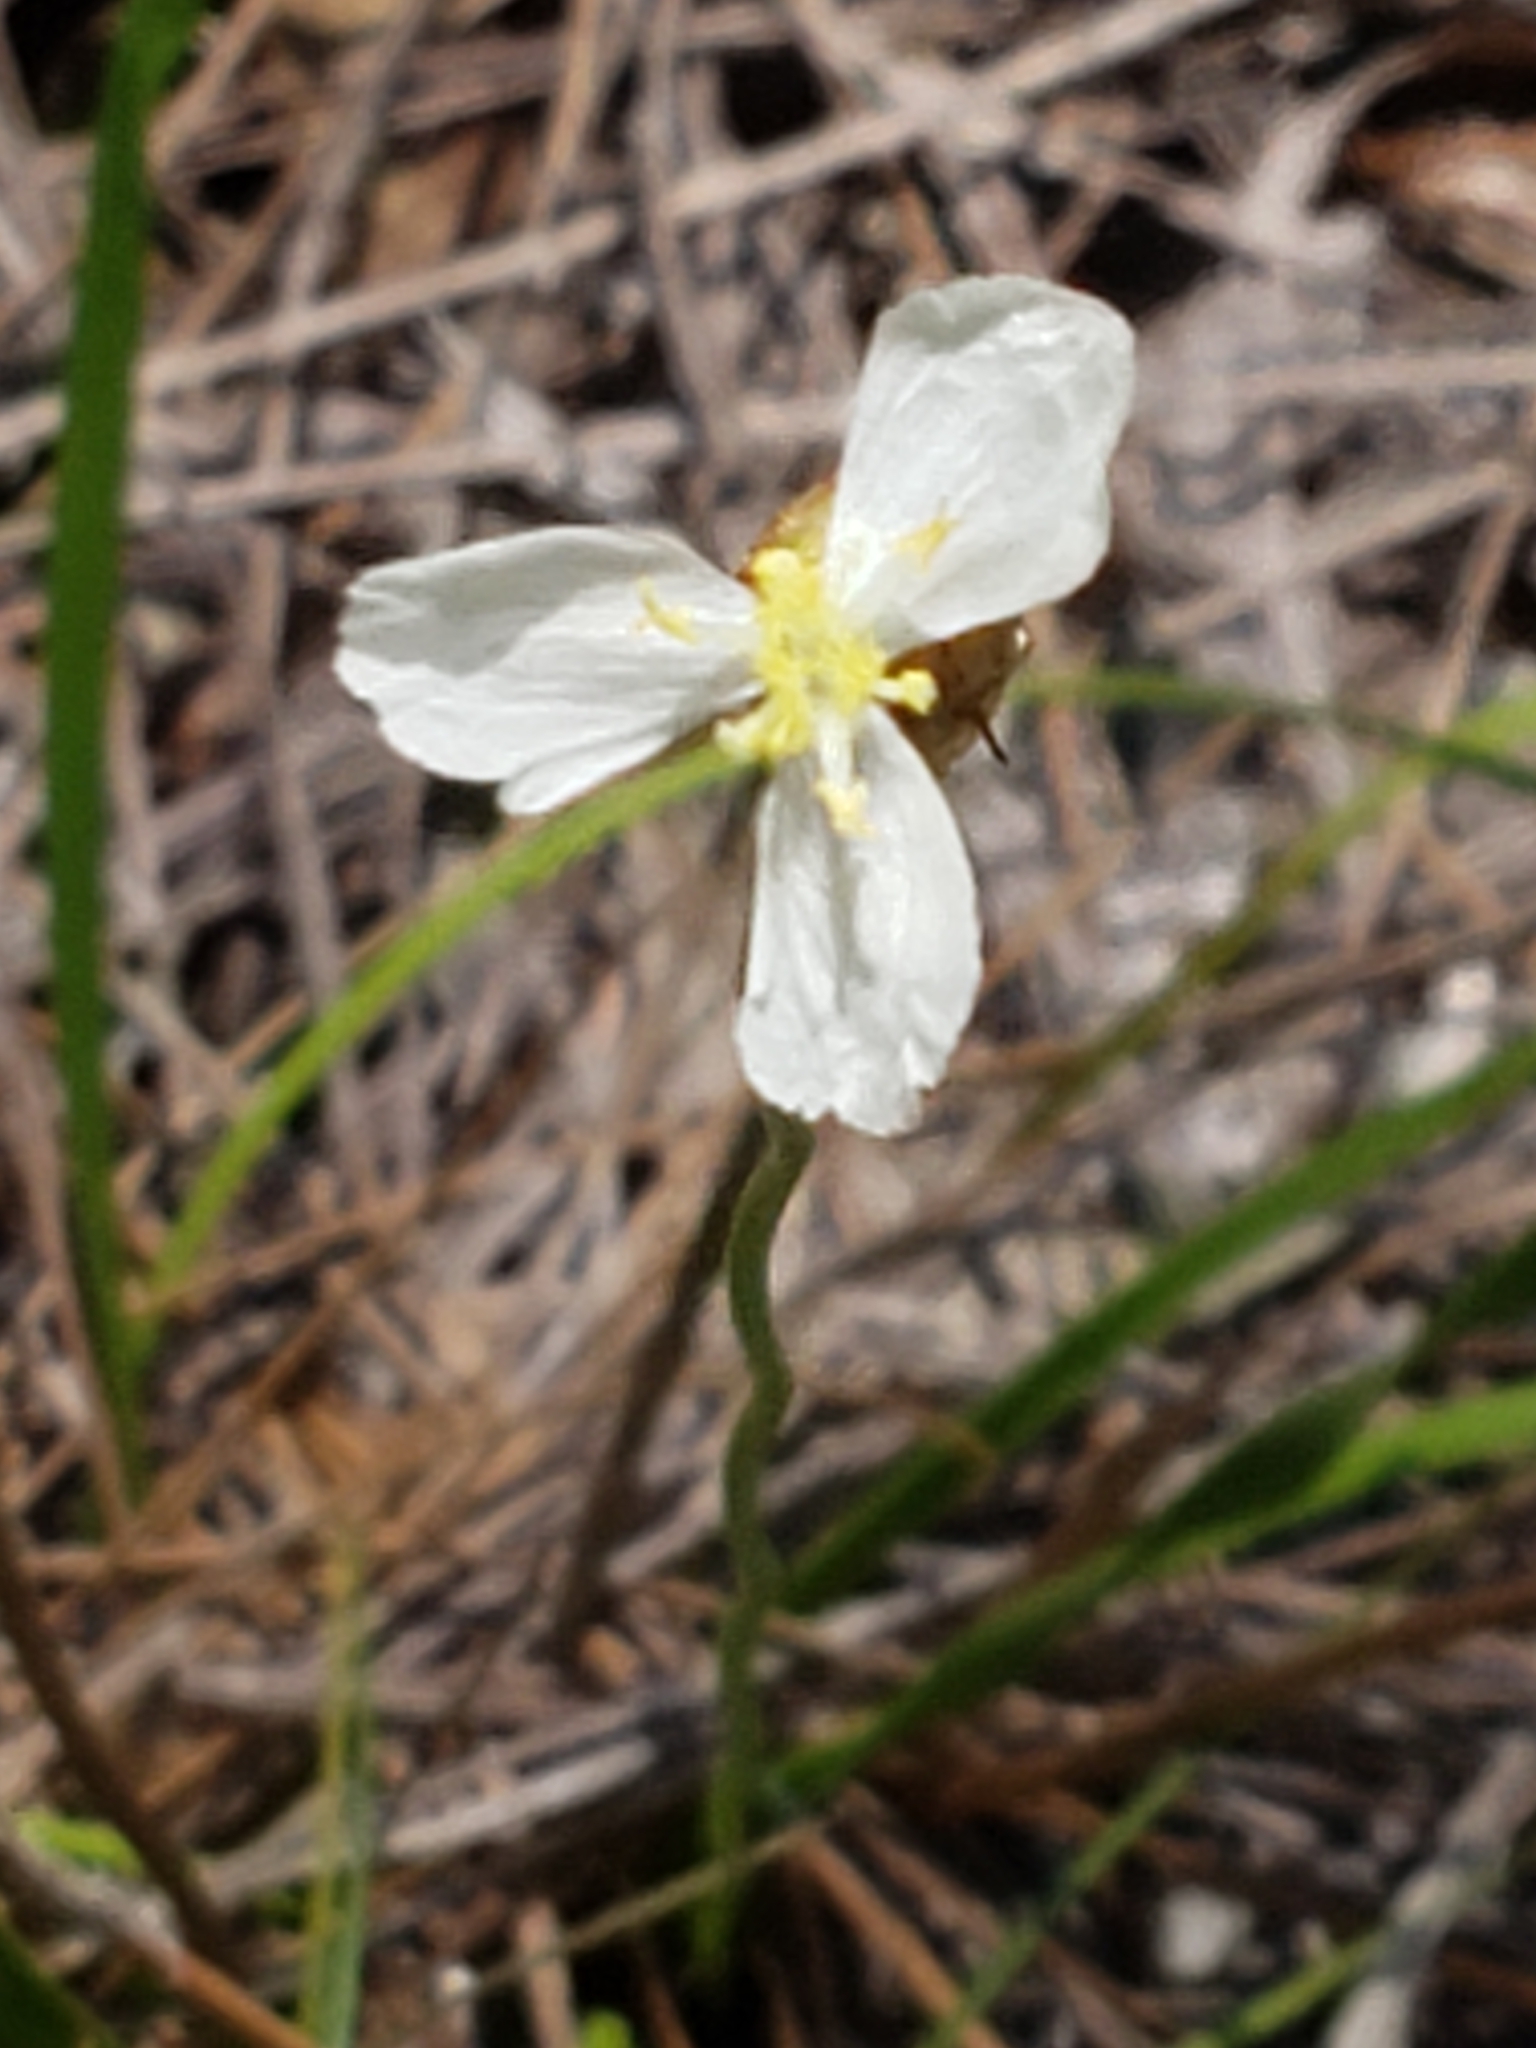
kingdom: Plantae
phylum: Tracheophyta
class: Liliopsida
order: Poales
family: Xyridaceae
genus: Xyris
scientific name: Xyris caroliniana
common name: Carolina yellow-eyed-grass
